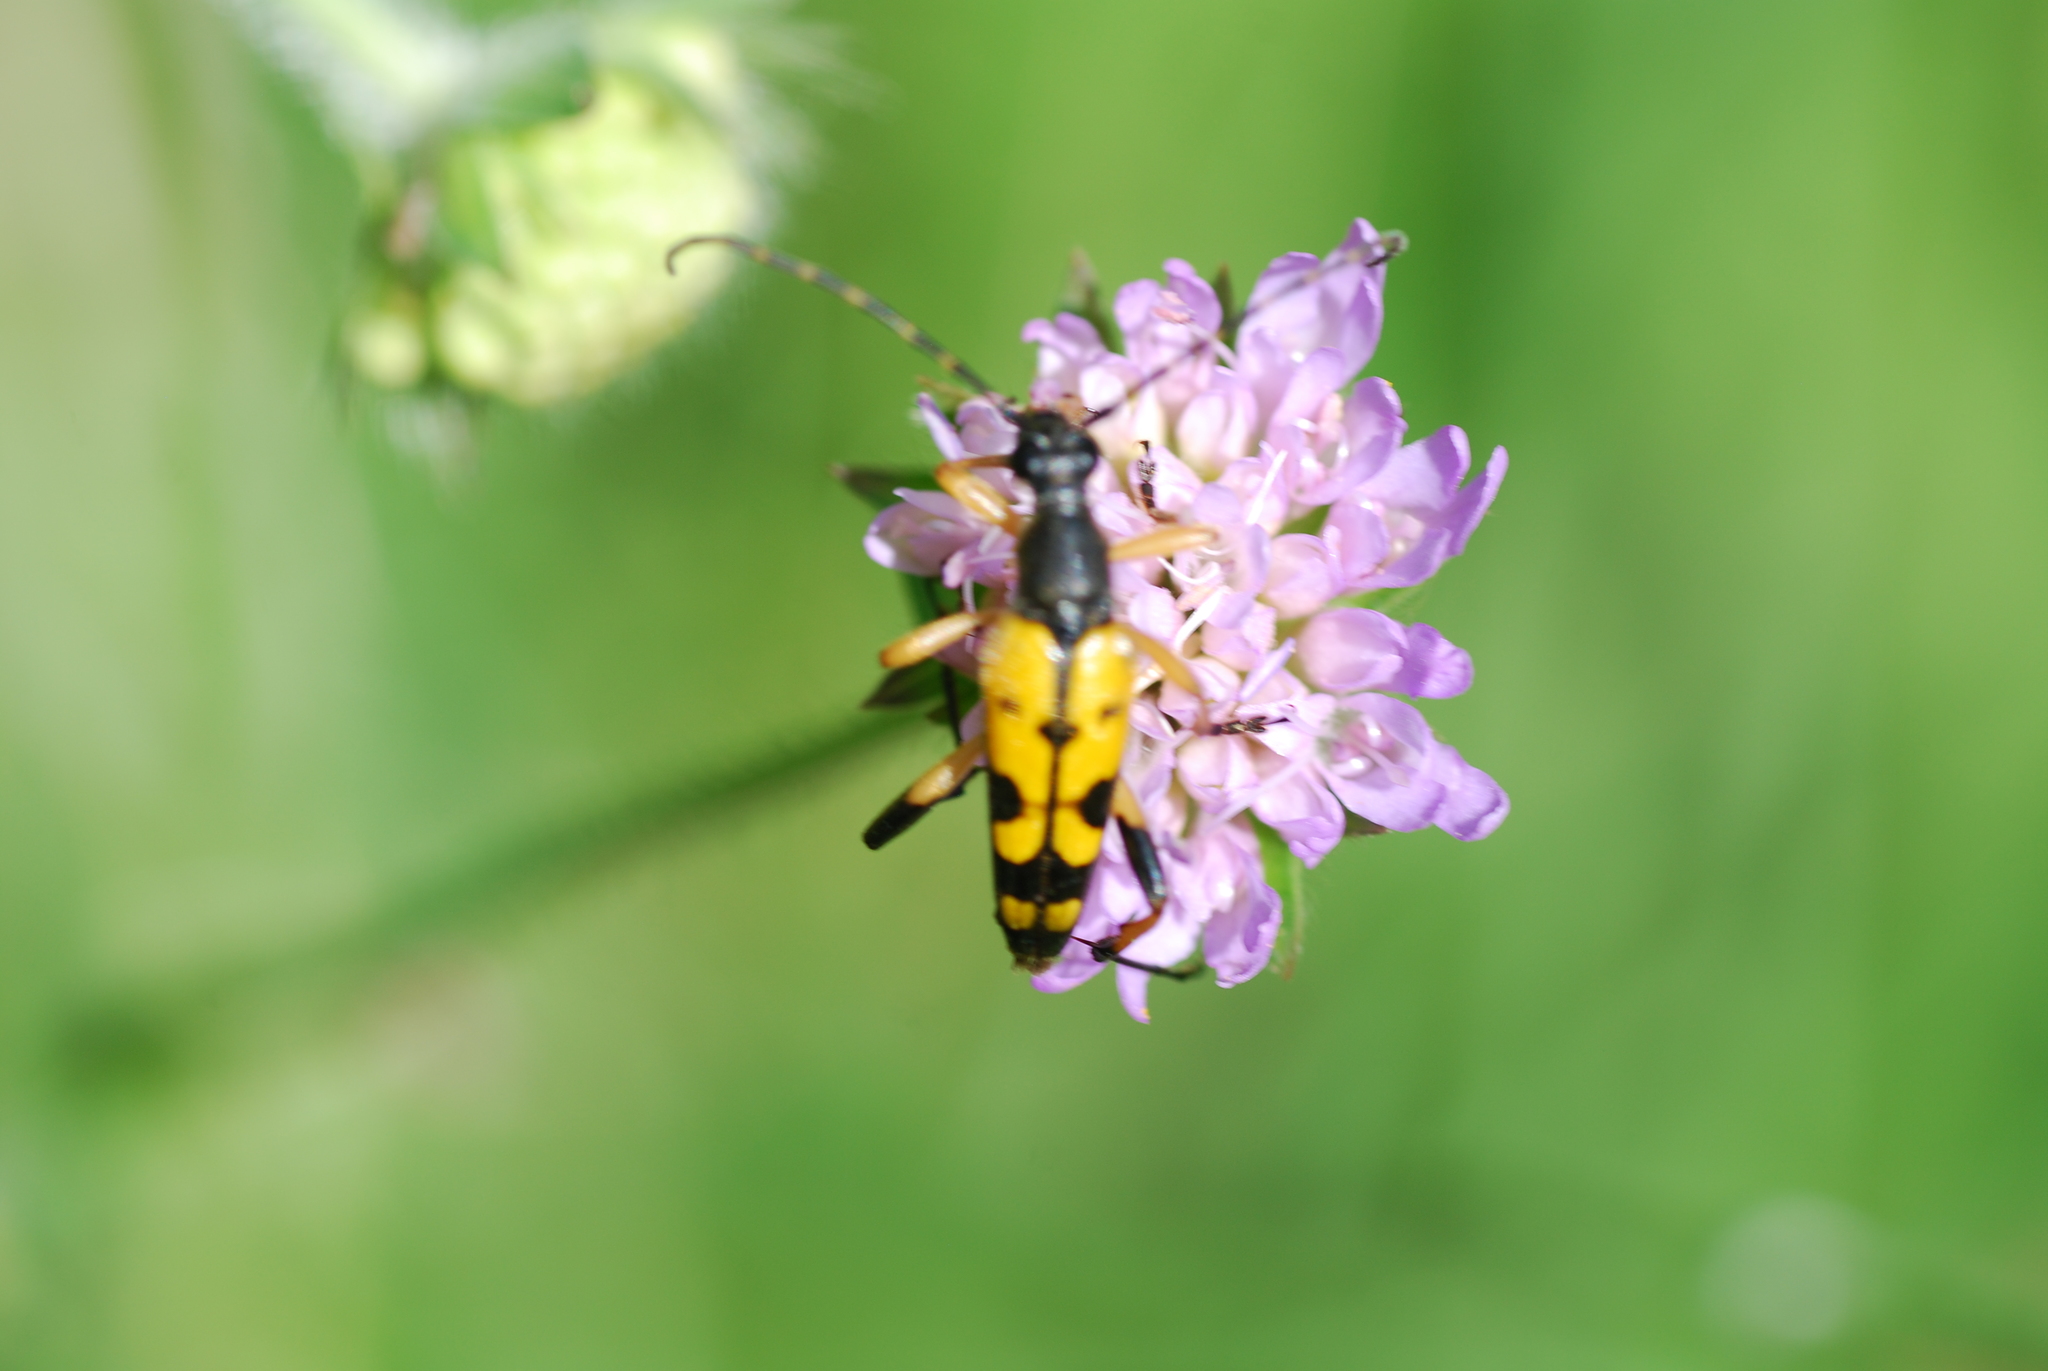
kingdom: Animalia
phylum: Arthropoda
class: Insecta
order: Coleoptera
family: Cerambycidae
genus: Rutpela
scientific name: Rutpela maculata
